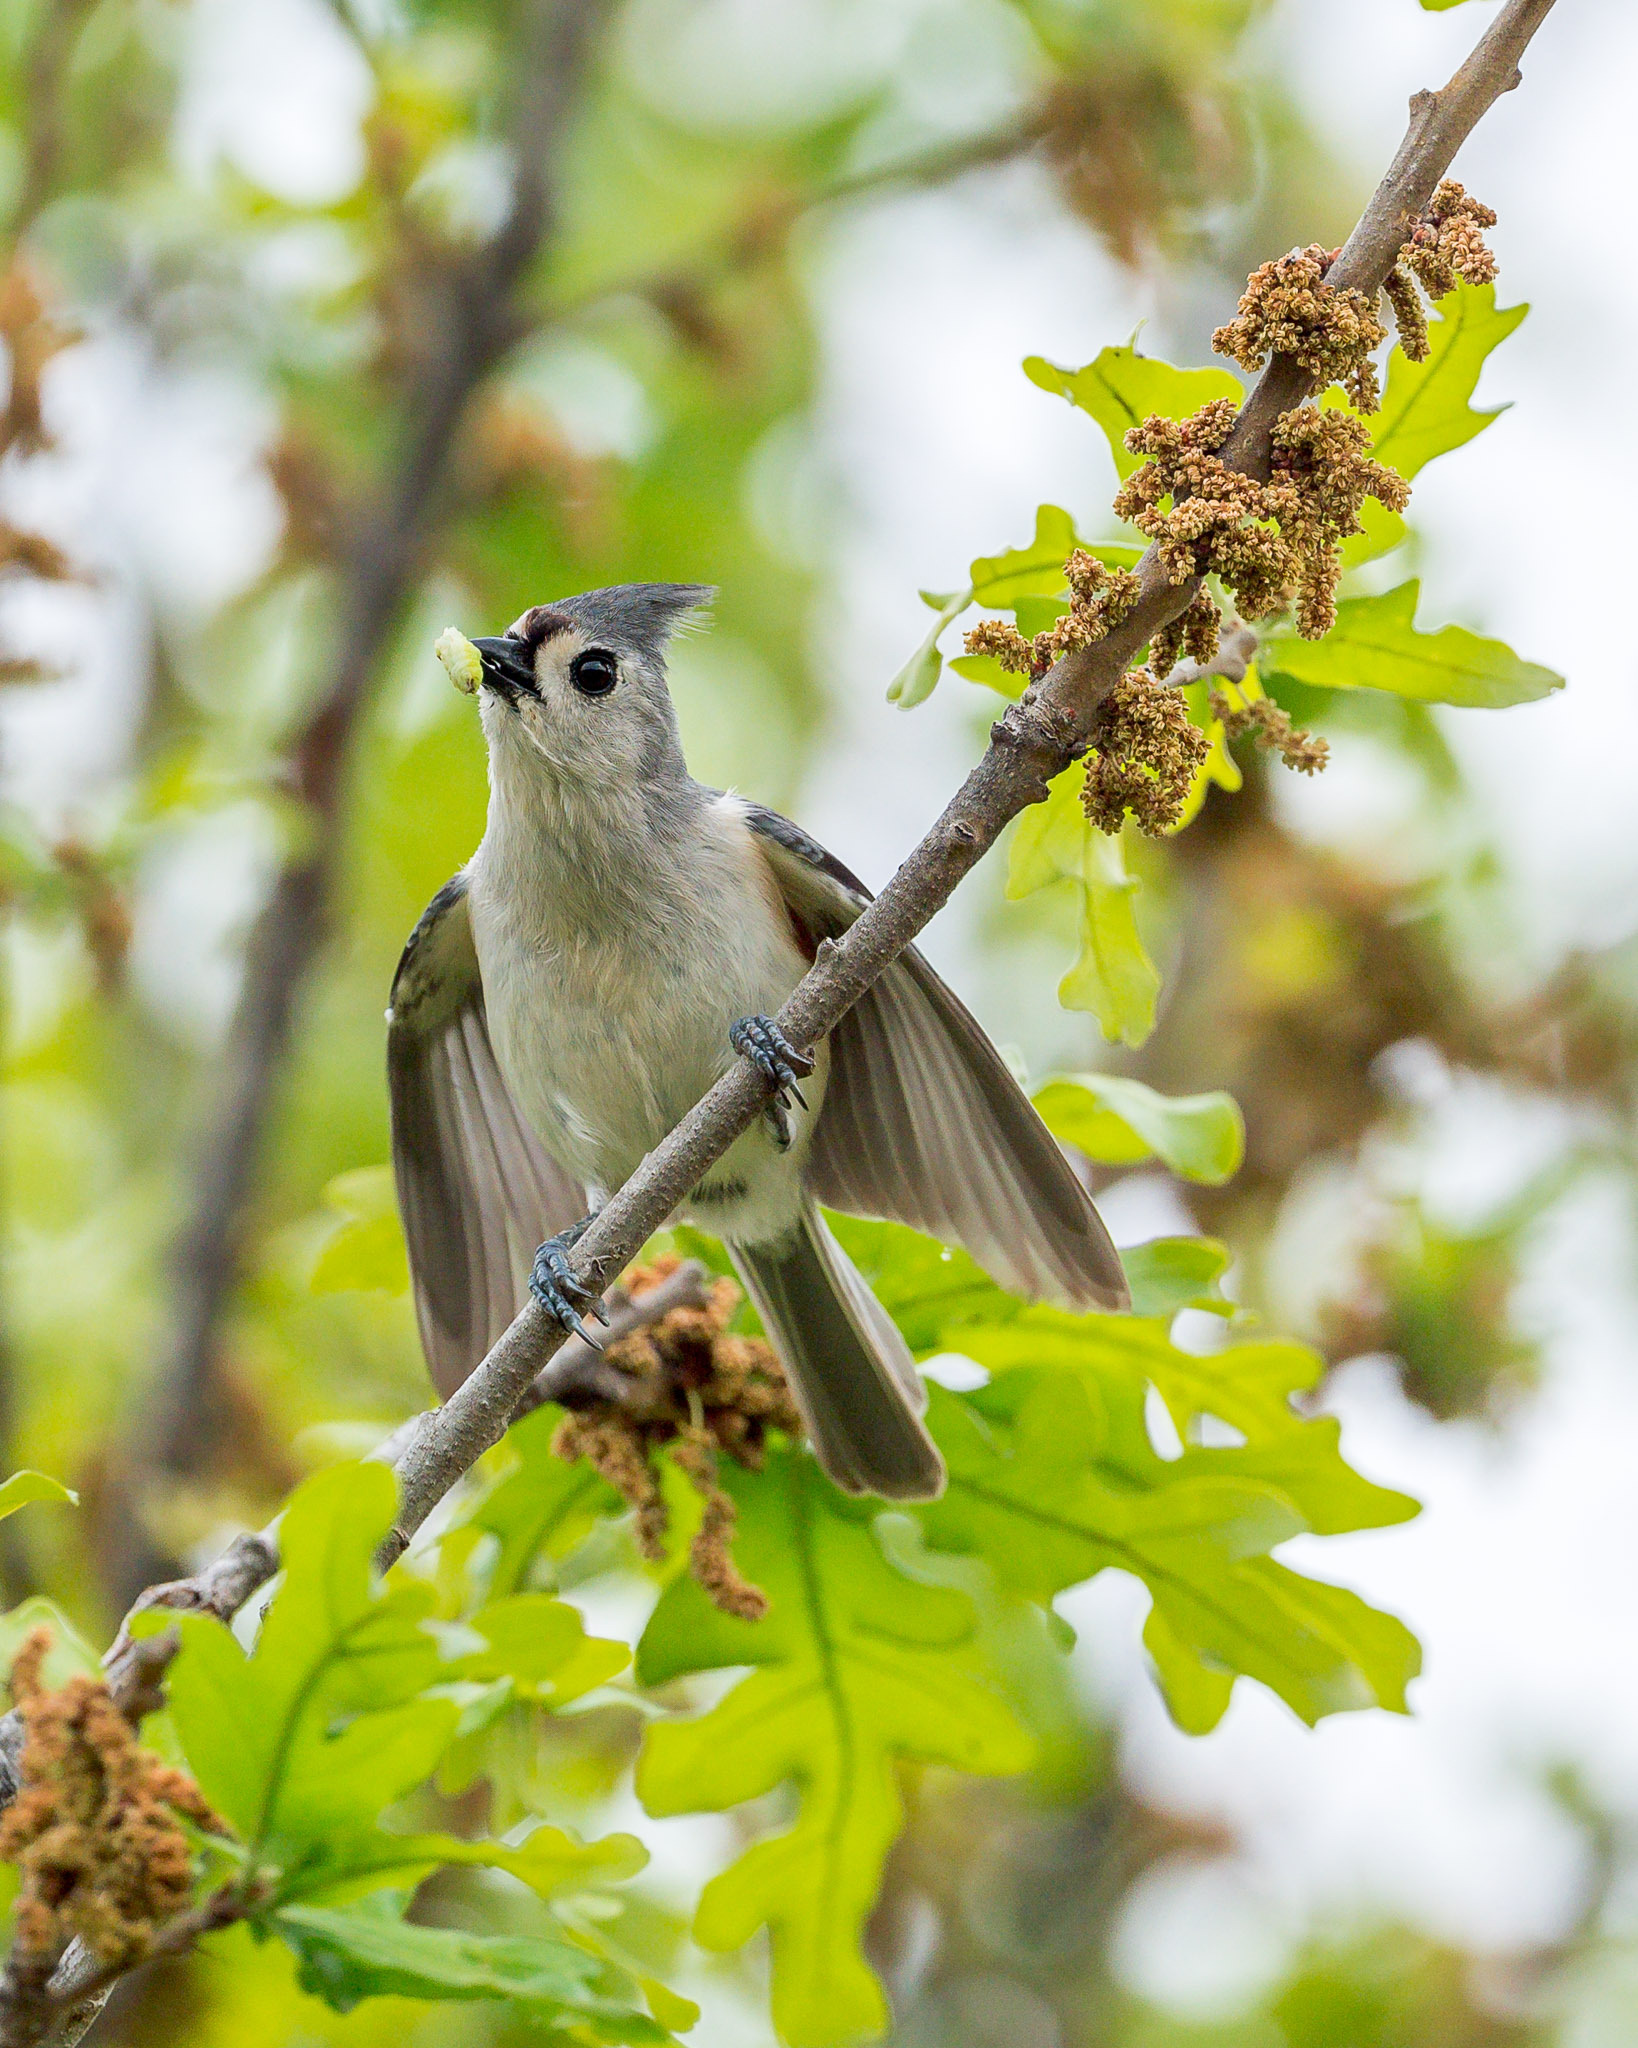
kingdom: Animalia
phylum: Chordata
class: Aves
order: Passeriformes
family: Paridae
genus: Baeolophus
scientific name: Baeolophus bicolor
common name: Tufted titmouse
